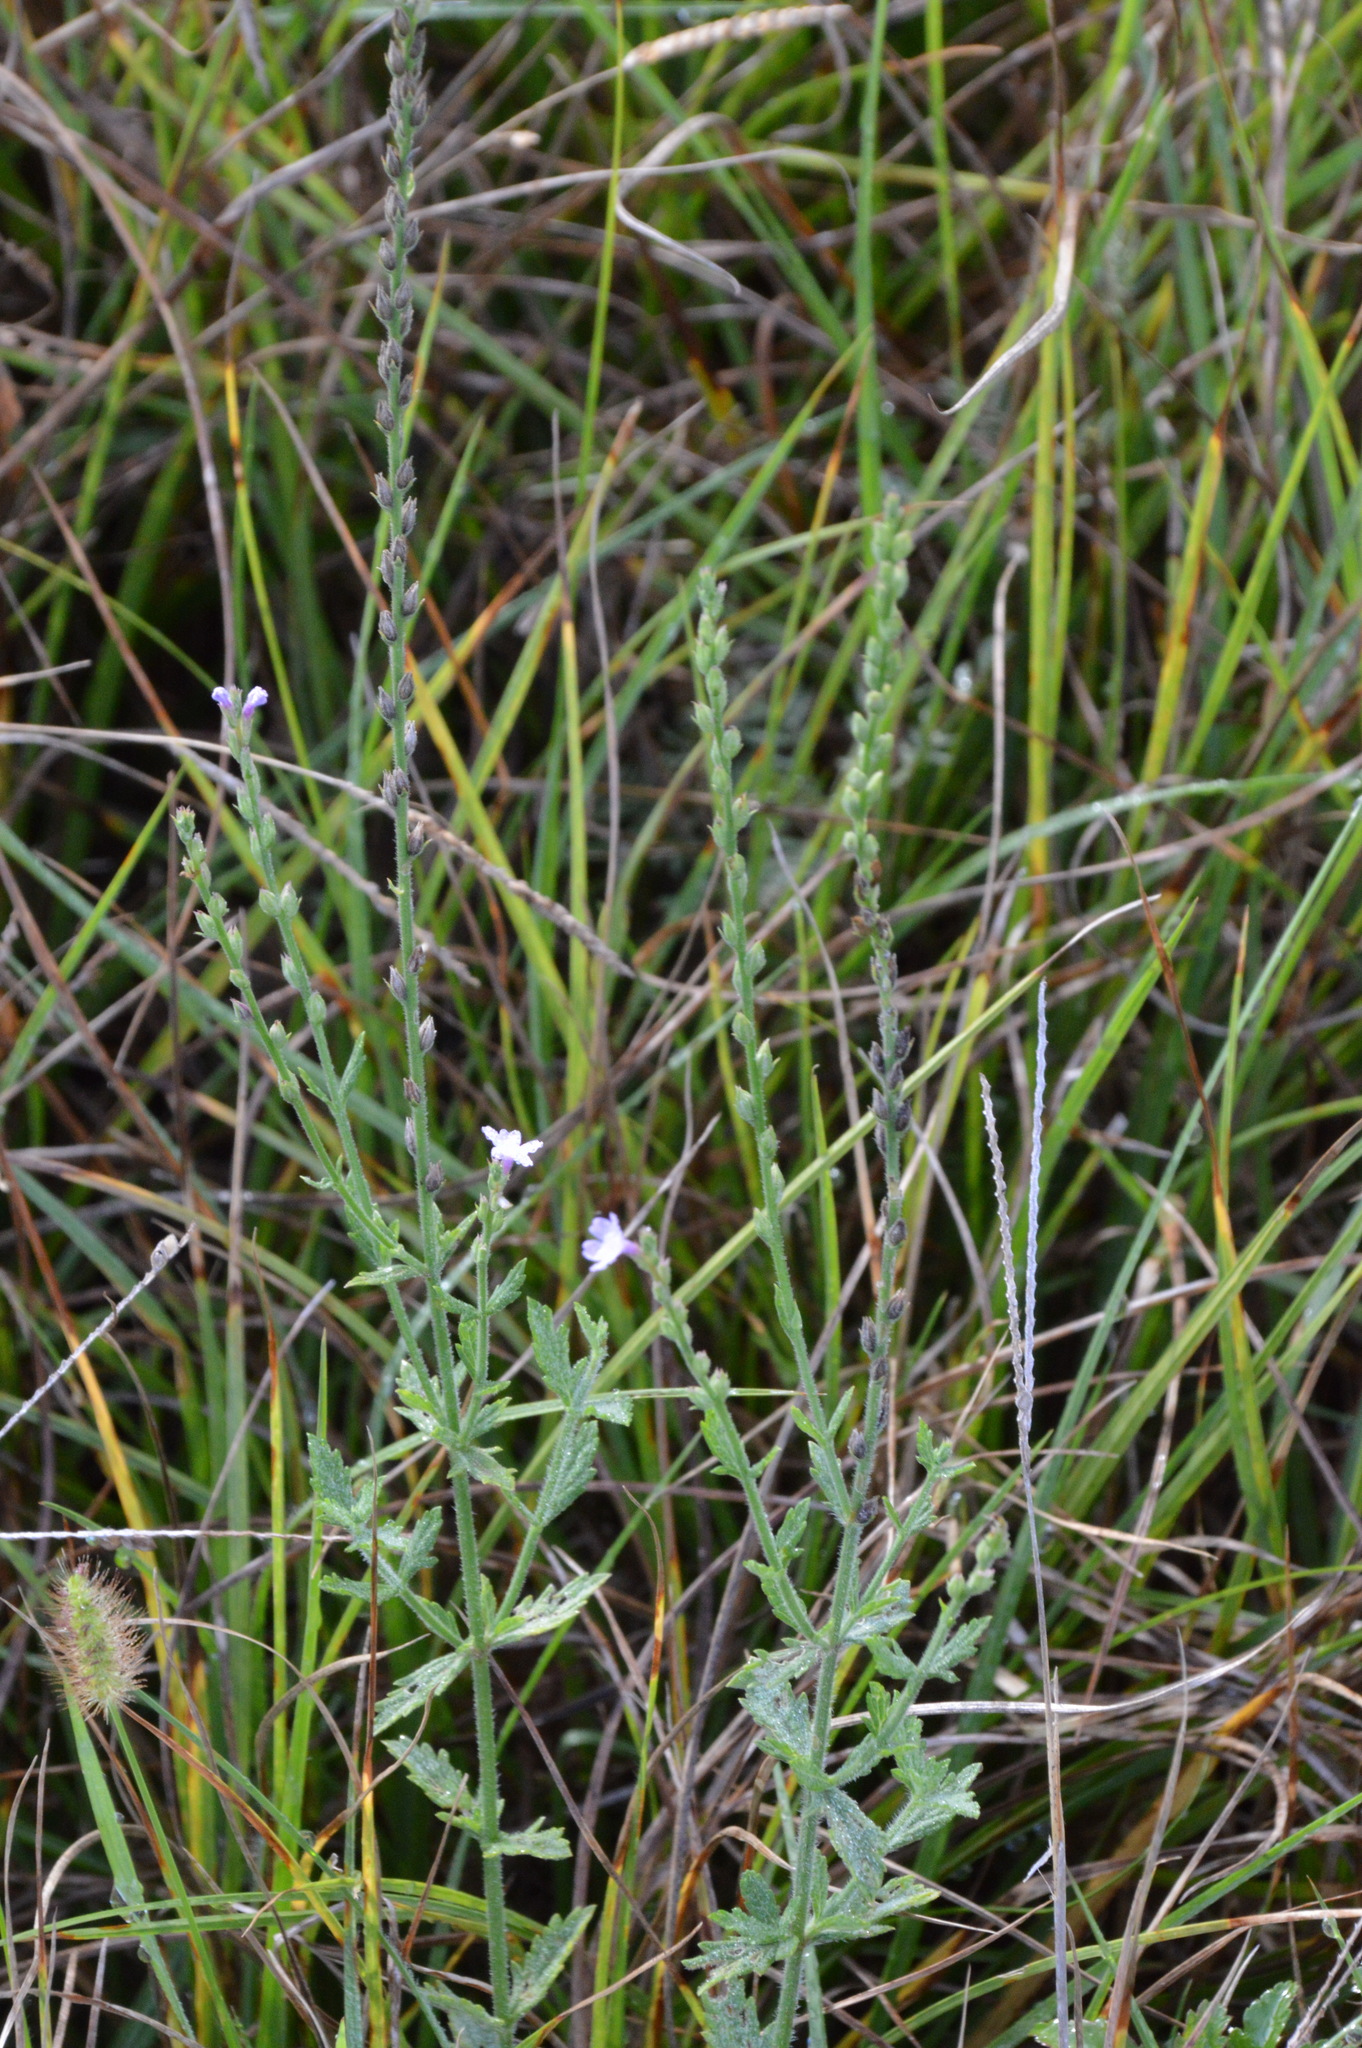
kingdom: Plantae
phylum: Tracheophyta
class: Magnoliopsida
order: Lamiales
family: Verbenaceae
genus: Verbena
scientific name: Verbena xutha
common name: Gulf vervain
